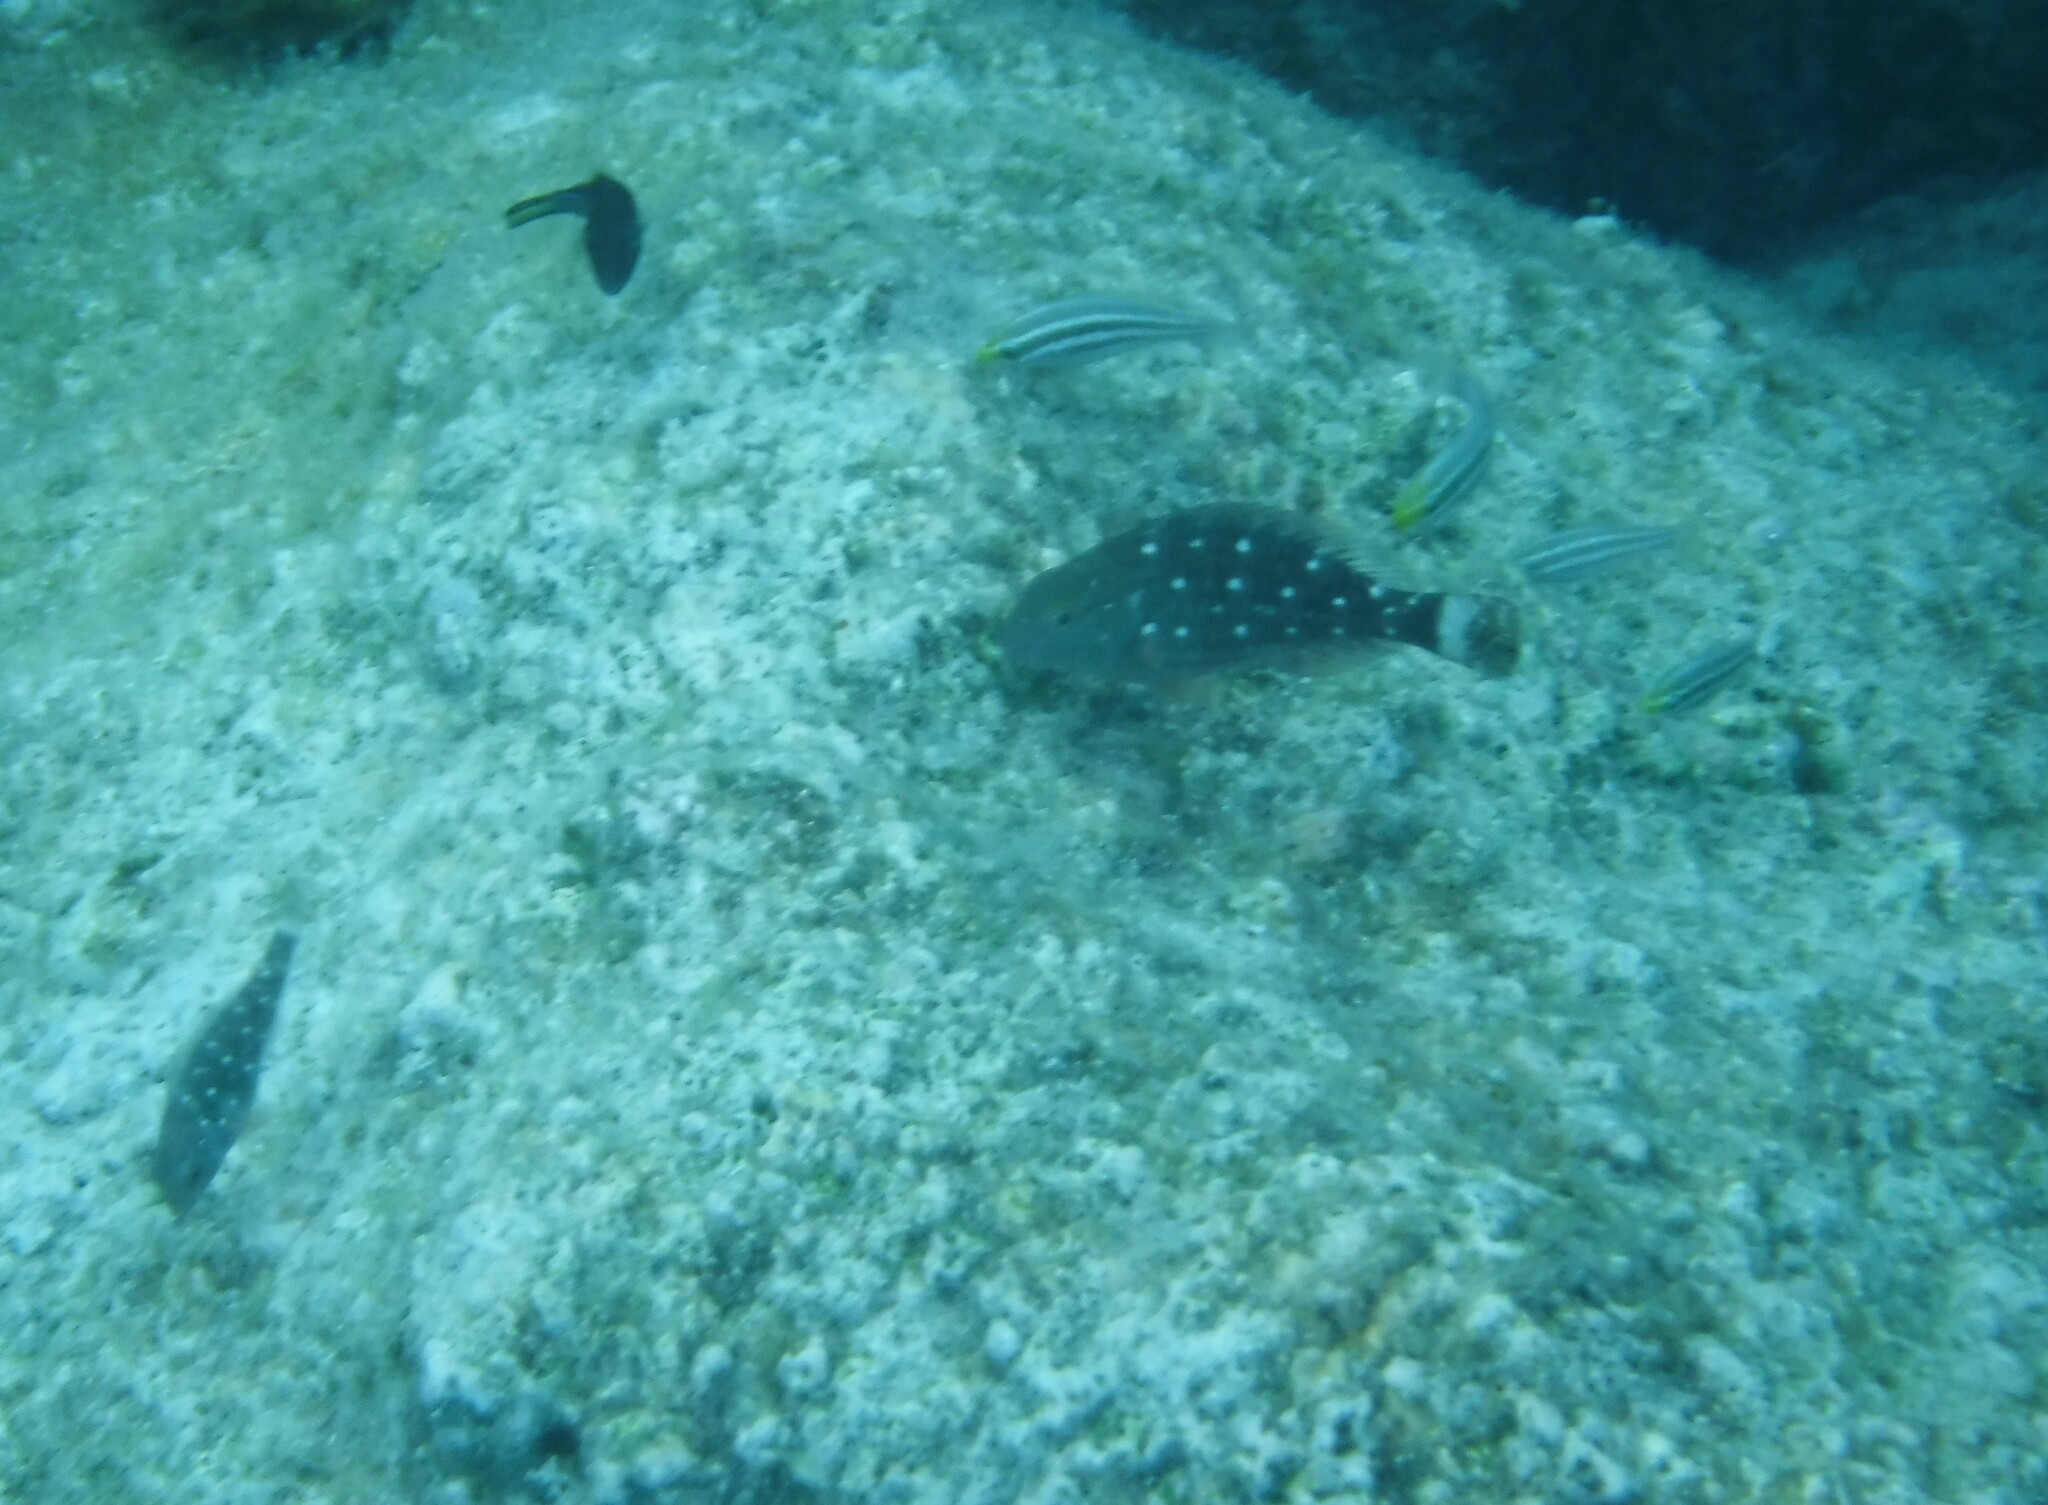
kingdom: Animalia
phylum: Chordata
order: Perciformes
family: Scaridae
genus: Sparisoma
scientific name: Sparisoma viride
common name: Stoplight parrotfish
